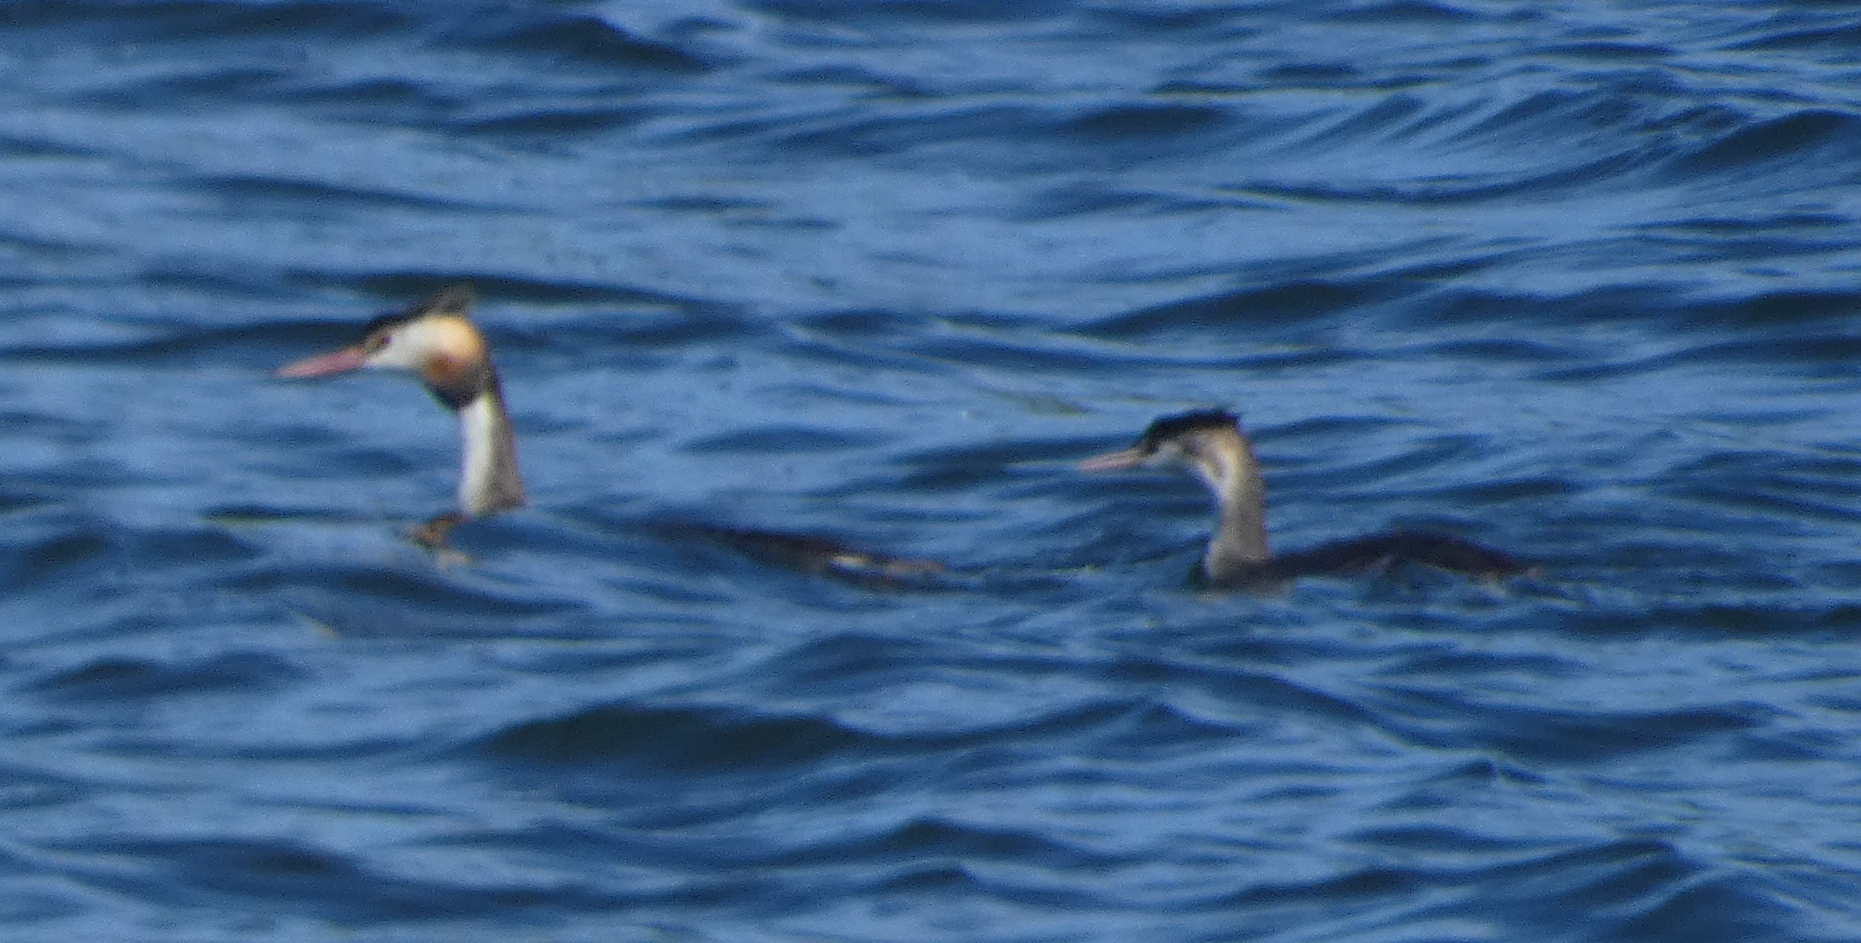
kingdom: Animalia
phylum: Chordata
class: Aves
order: Podicipediformes
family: Podicipedidae
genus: Podiceps
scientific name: Podiceps cristatus
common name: Great crested grebe
